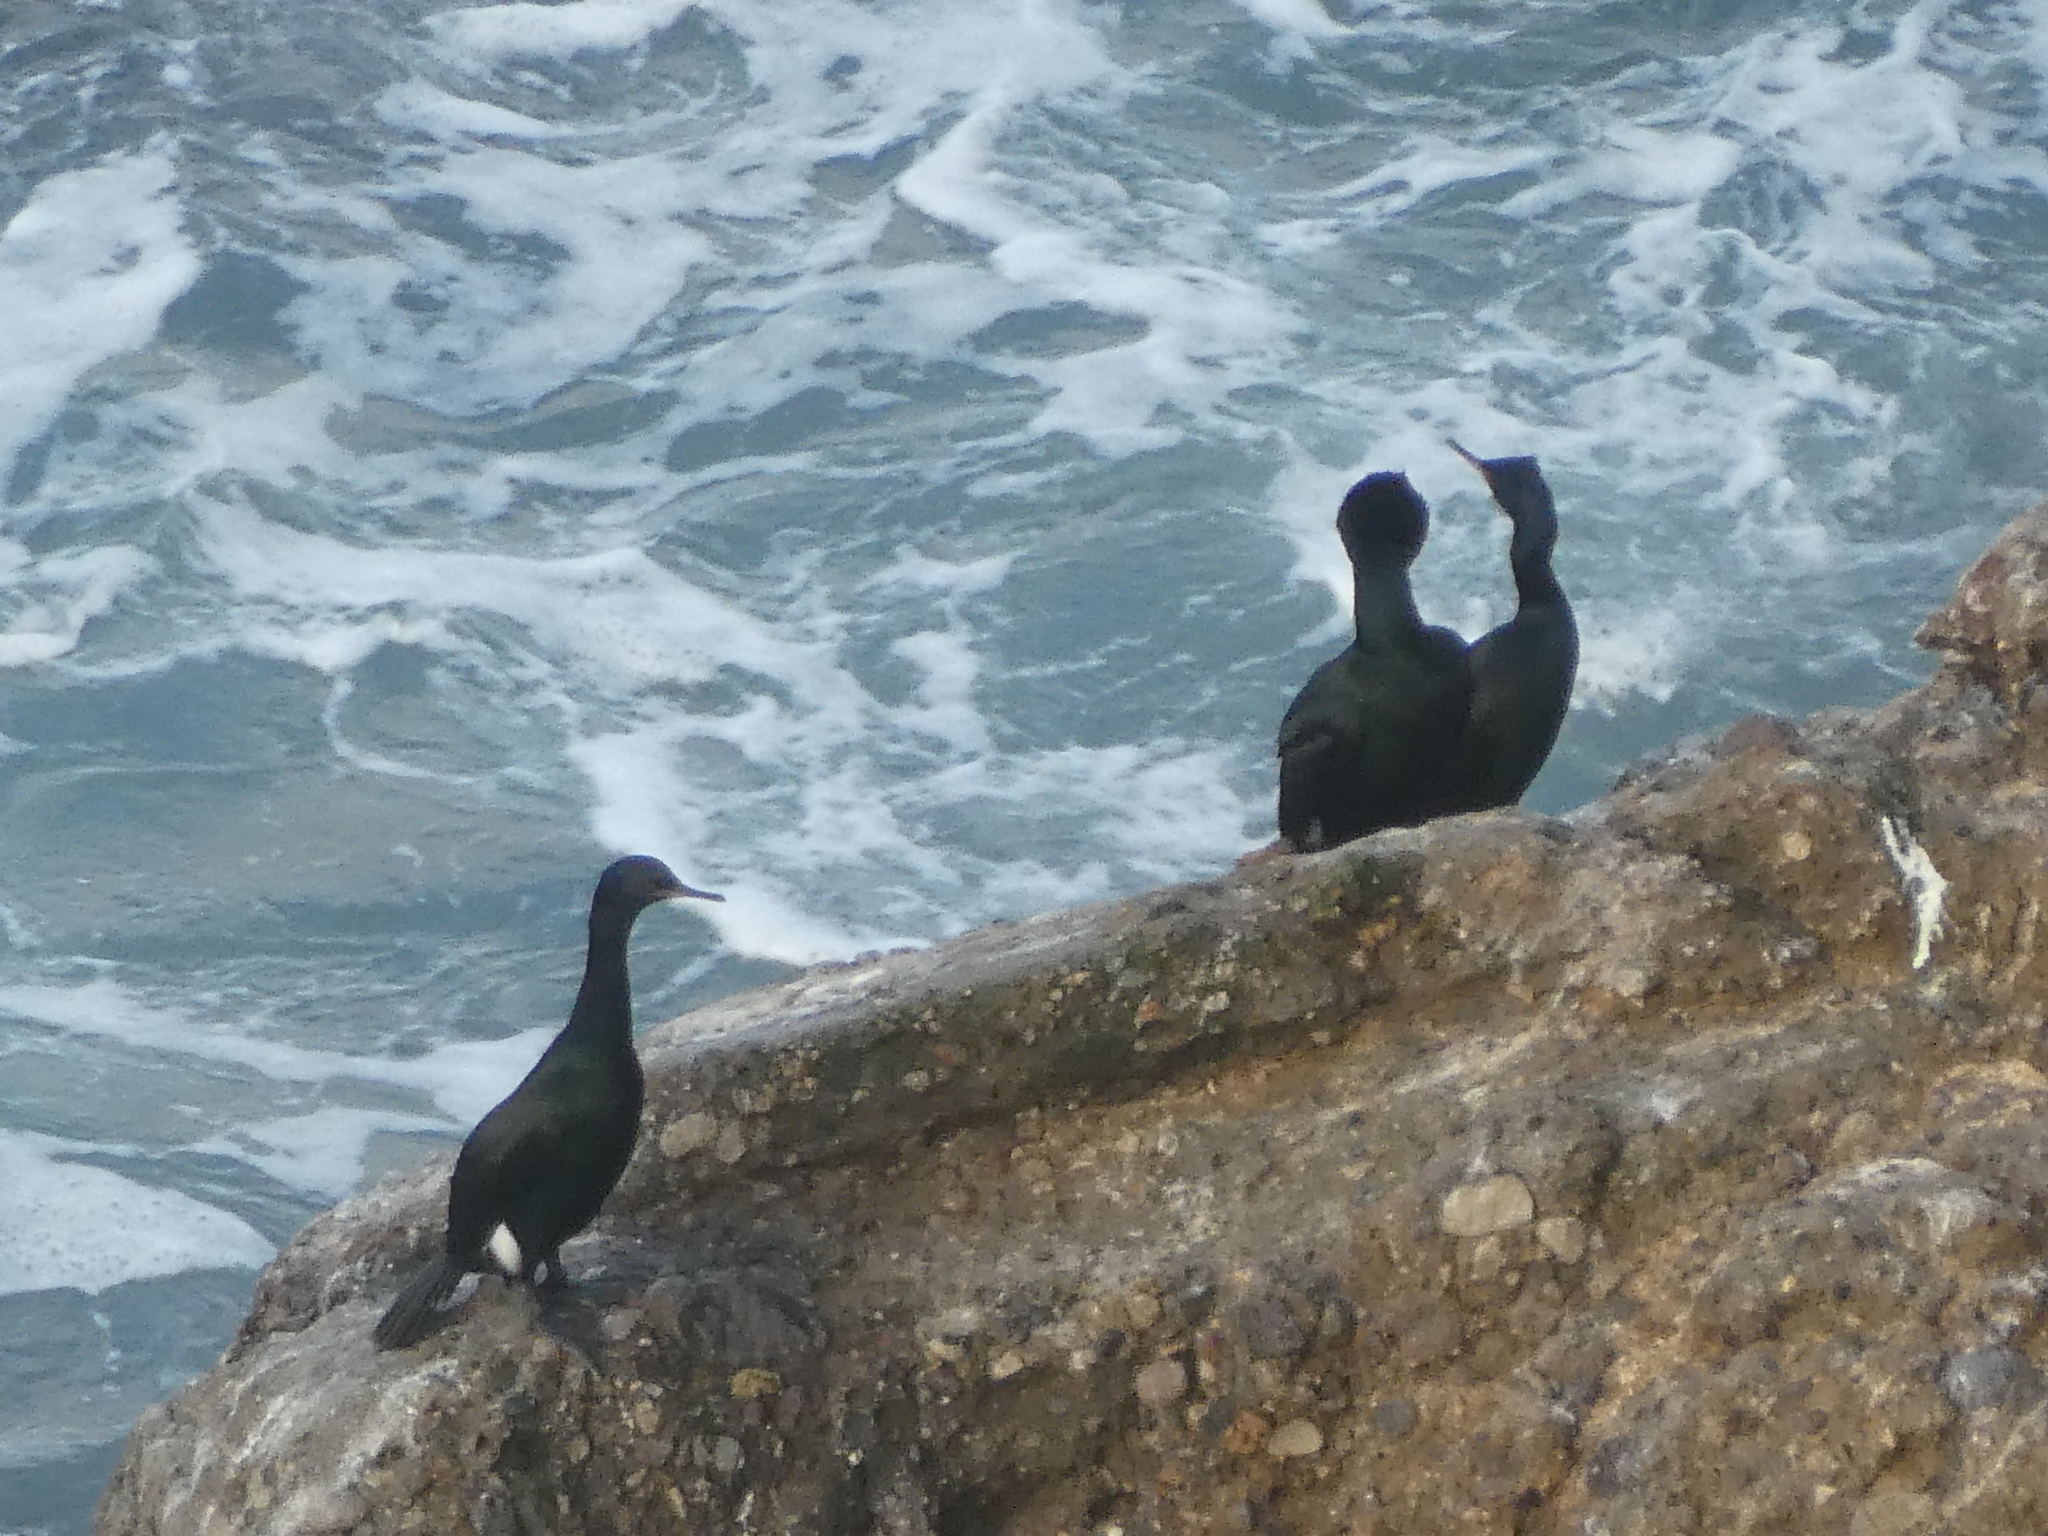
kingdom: Animalia
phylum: Chordata
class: Aves
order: Suliformes
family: Phalacrocoracidae
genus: Phalacrocorax
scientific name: Phalacrocorax pelagicus
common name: Pelagic cormorant
